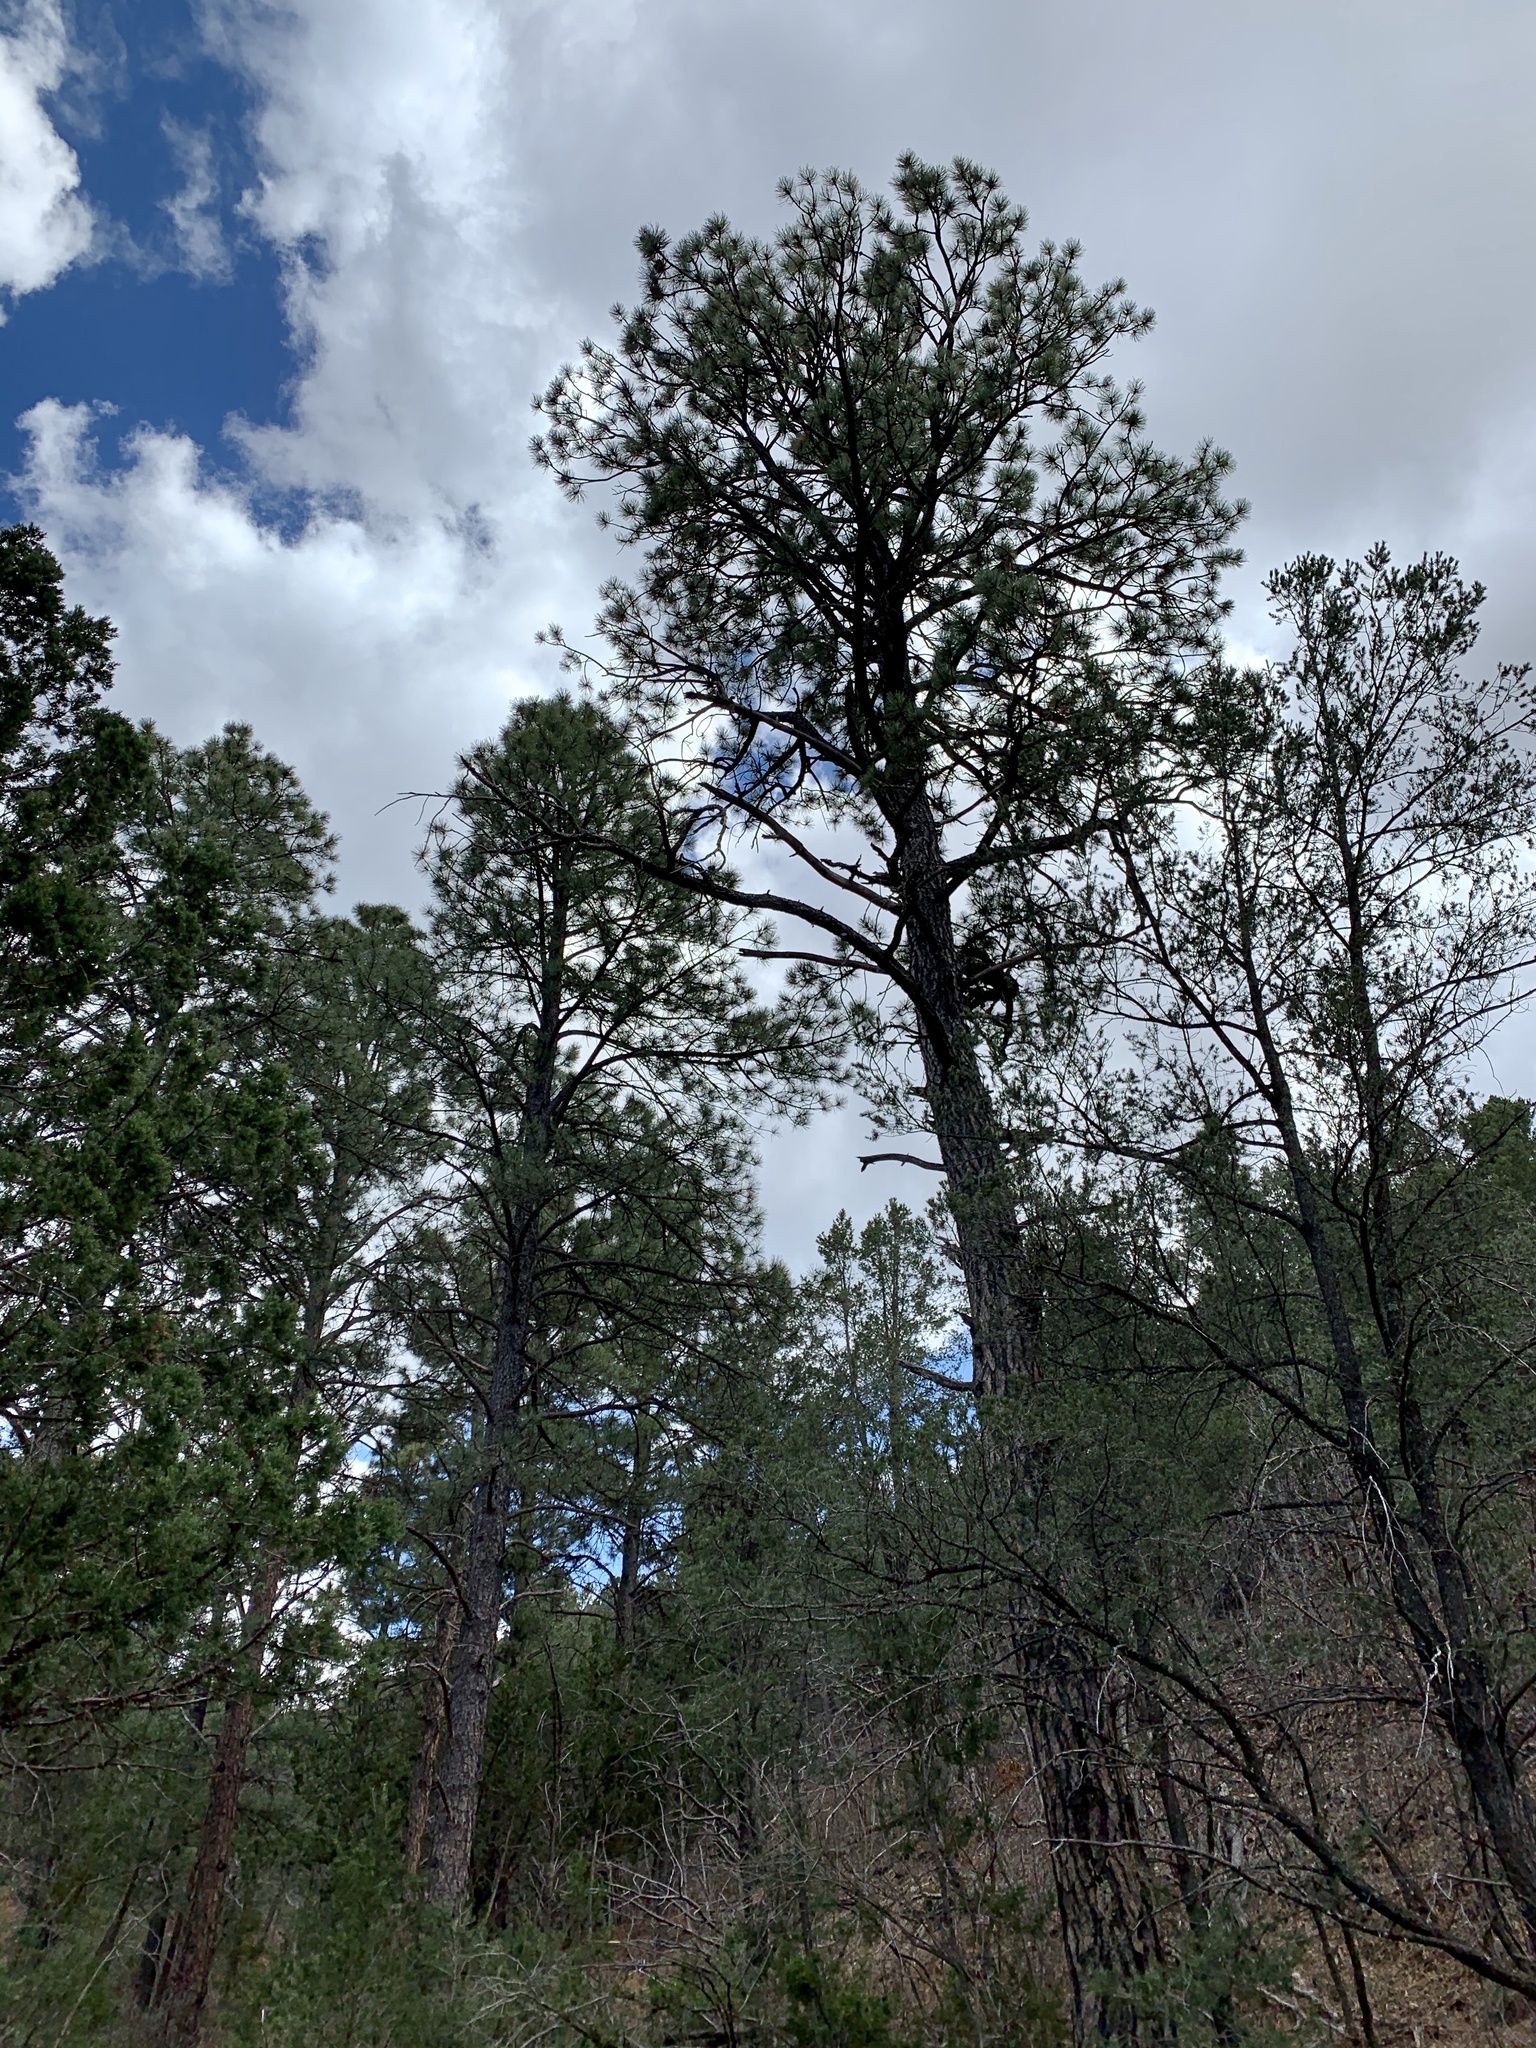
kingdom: Plantae
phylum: Tracheophyta
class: Pinopsida
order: Pinales
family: Pinaceae
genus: Pinus
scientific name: Pinus ponderosa
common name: Western yellow-pine
